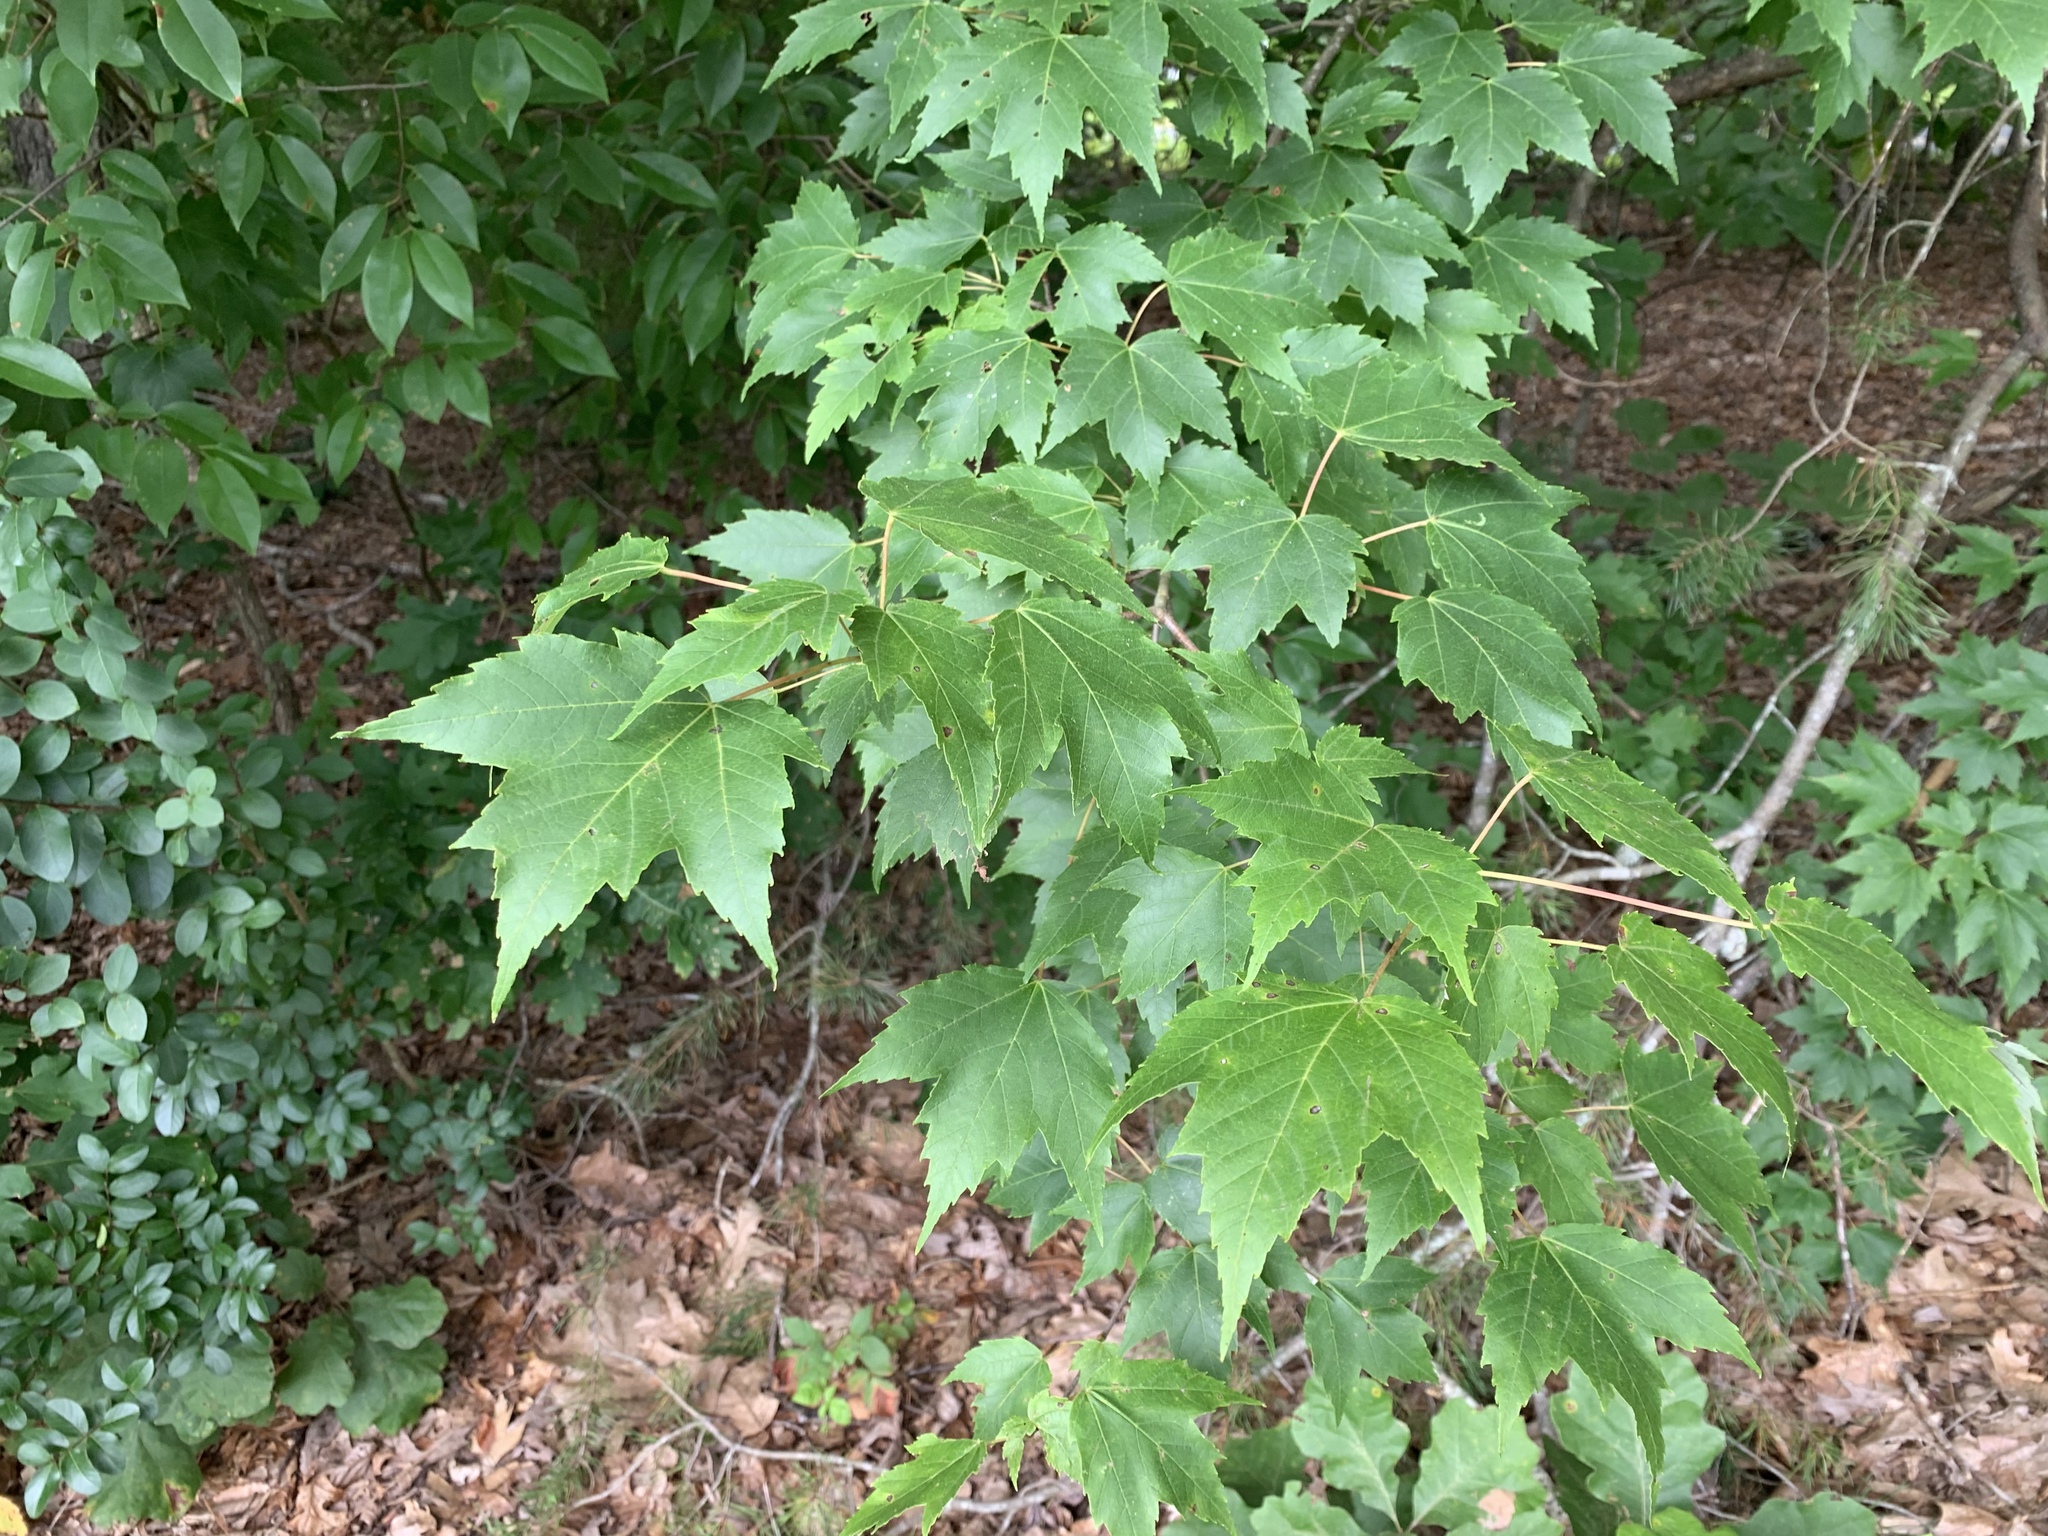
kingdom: Plantae
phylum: Tracheophyta
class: Magnoliopsida
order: Sapindales
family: Sapindaceae
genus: Acer
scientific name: Acer rubrum
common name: Red maple
